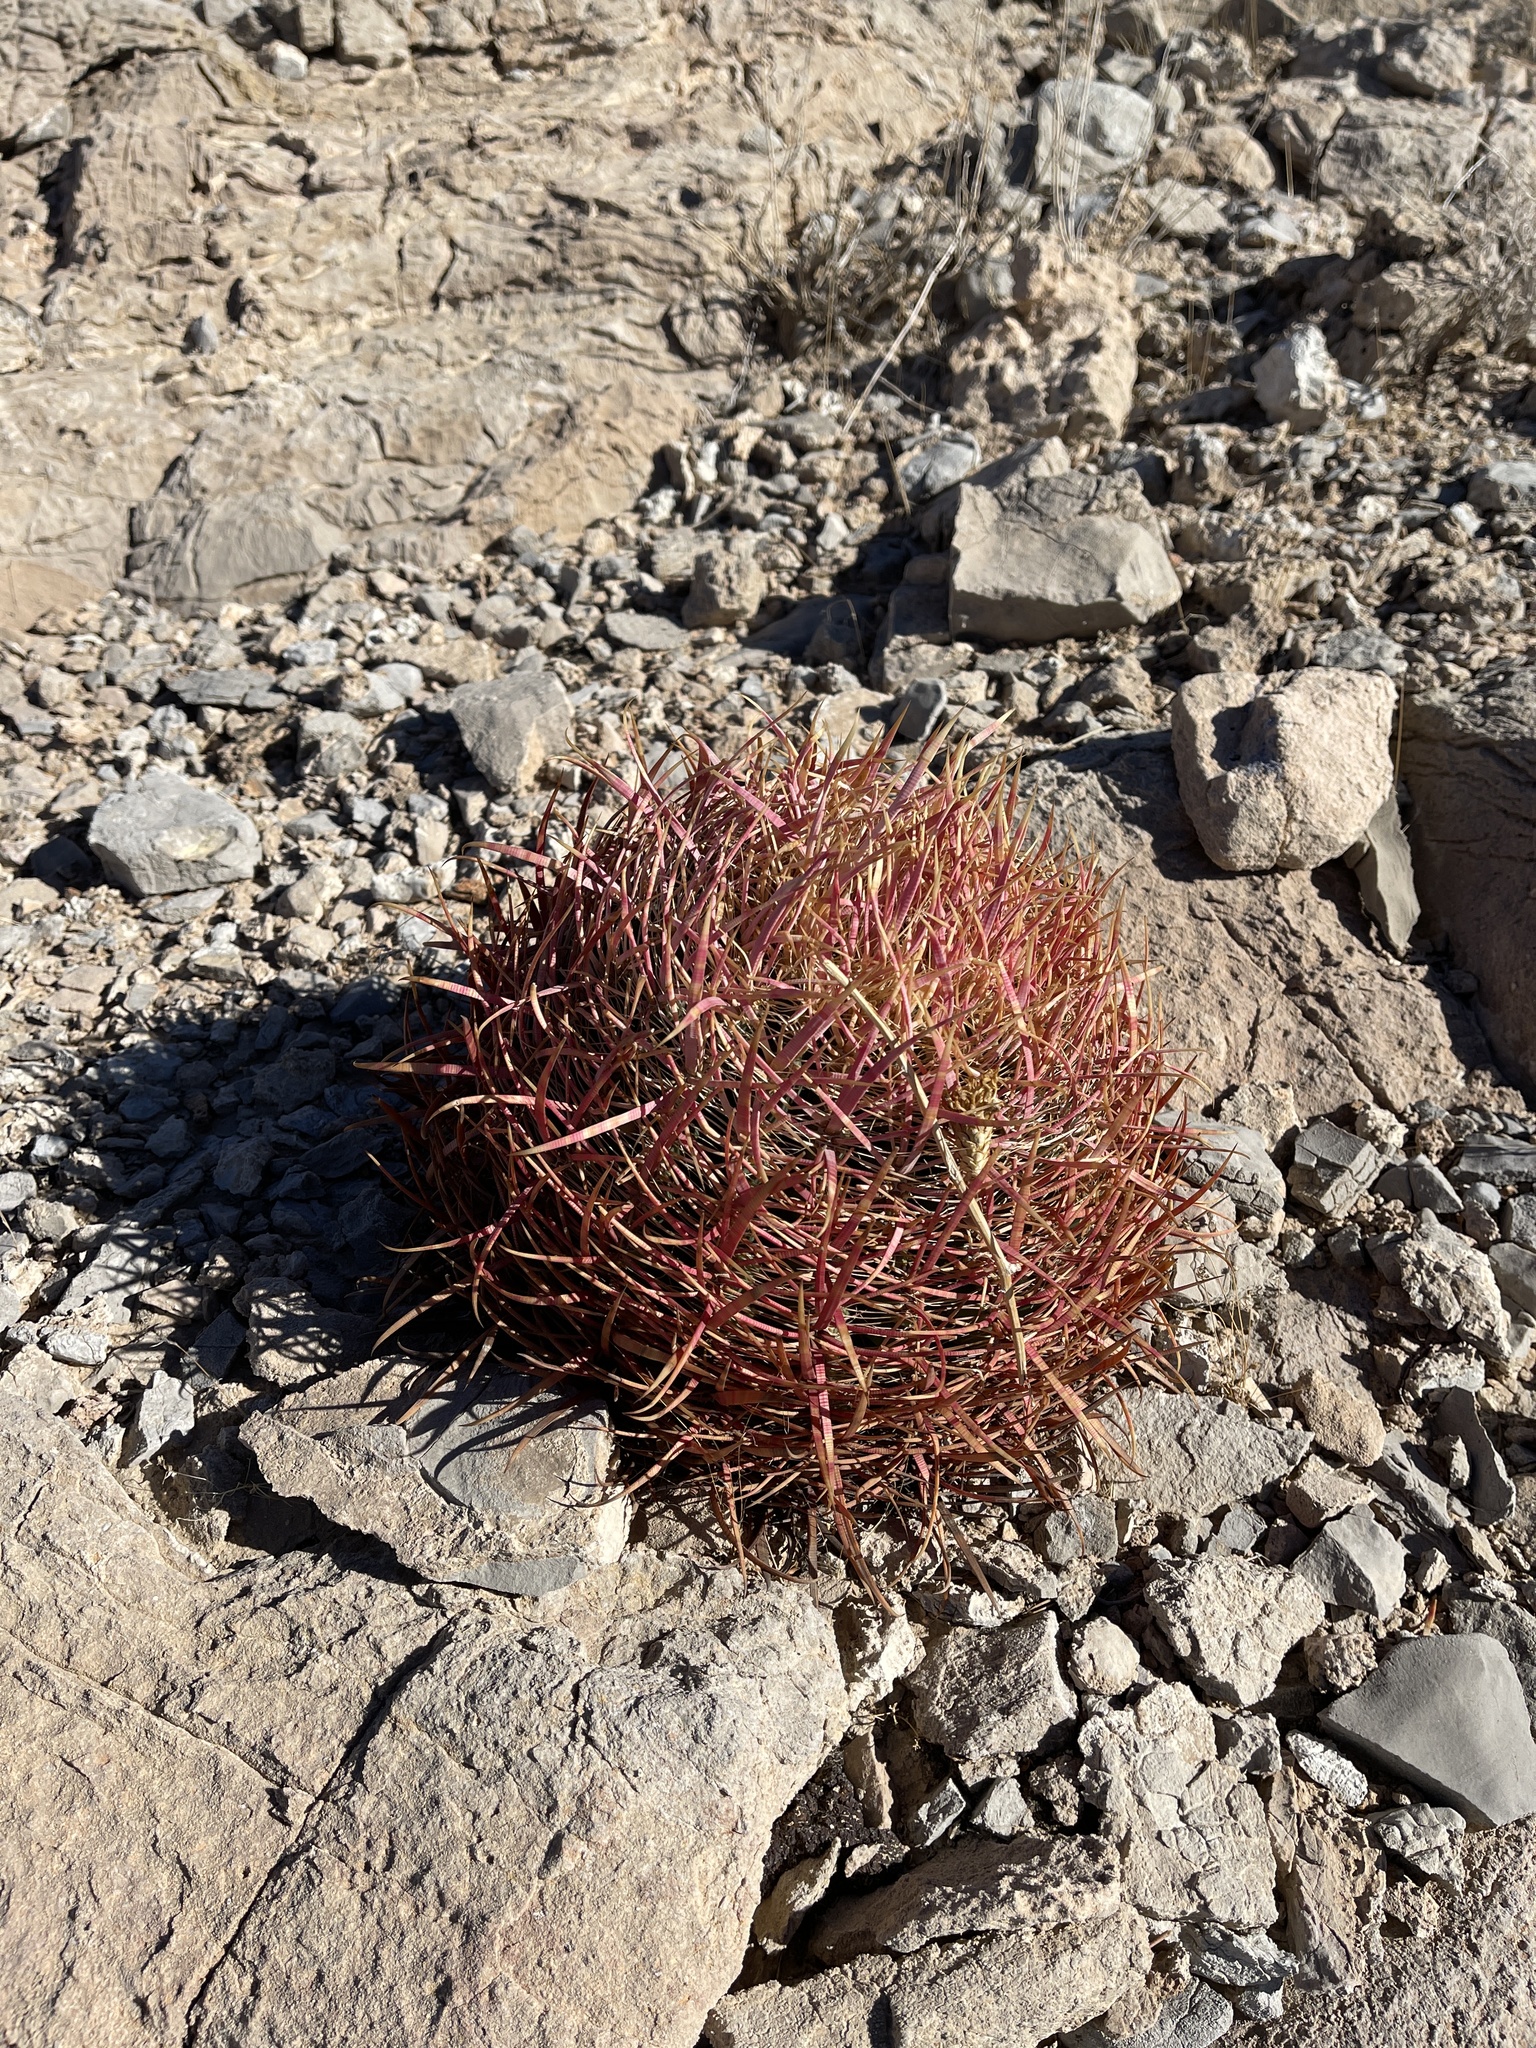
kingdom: Plantae
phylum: Tracheophyta
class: Magnoliopsida
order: Caryophyllales
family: Cactaceae
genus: Ferocactus
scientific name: Ferocactus cylindraceus
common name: California barrel cactus
